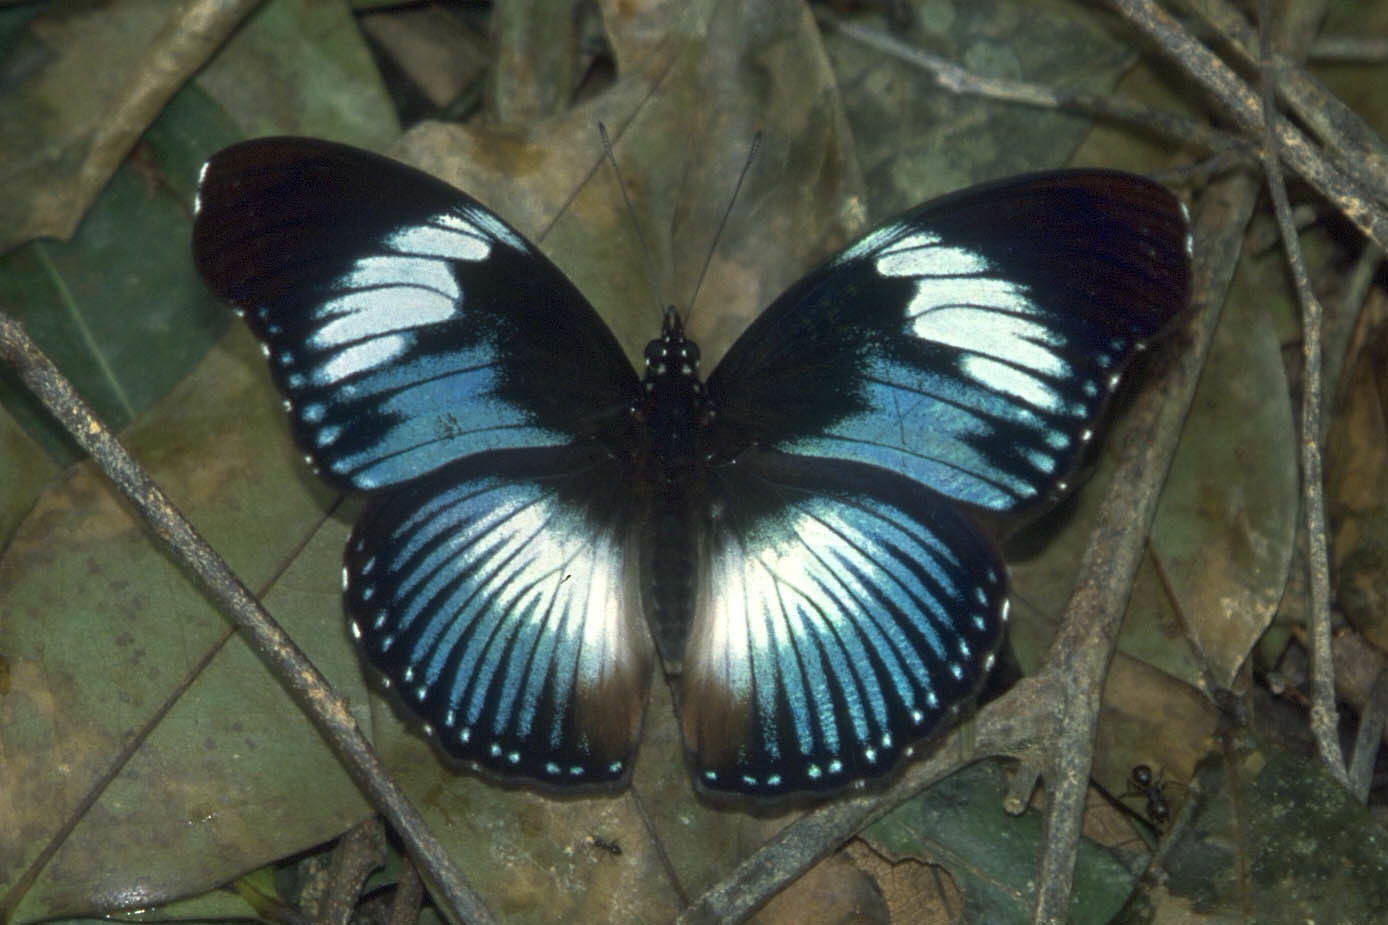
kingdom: Animalia
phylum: Arthropoda
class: Insecta
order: Lepidoptera
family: Nymphalidae
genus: Hypolimnas
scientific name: Hypolimnas monteironis
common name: Scarce blue diadem
